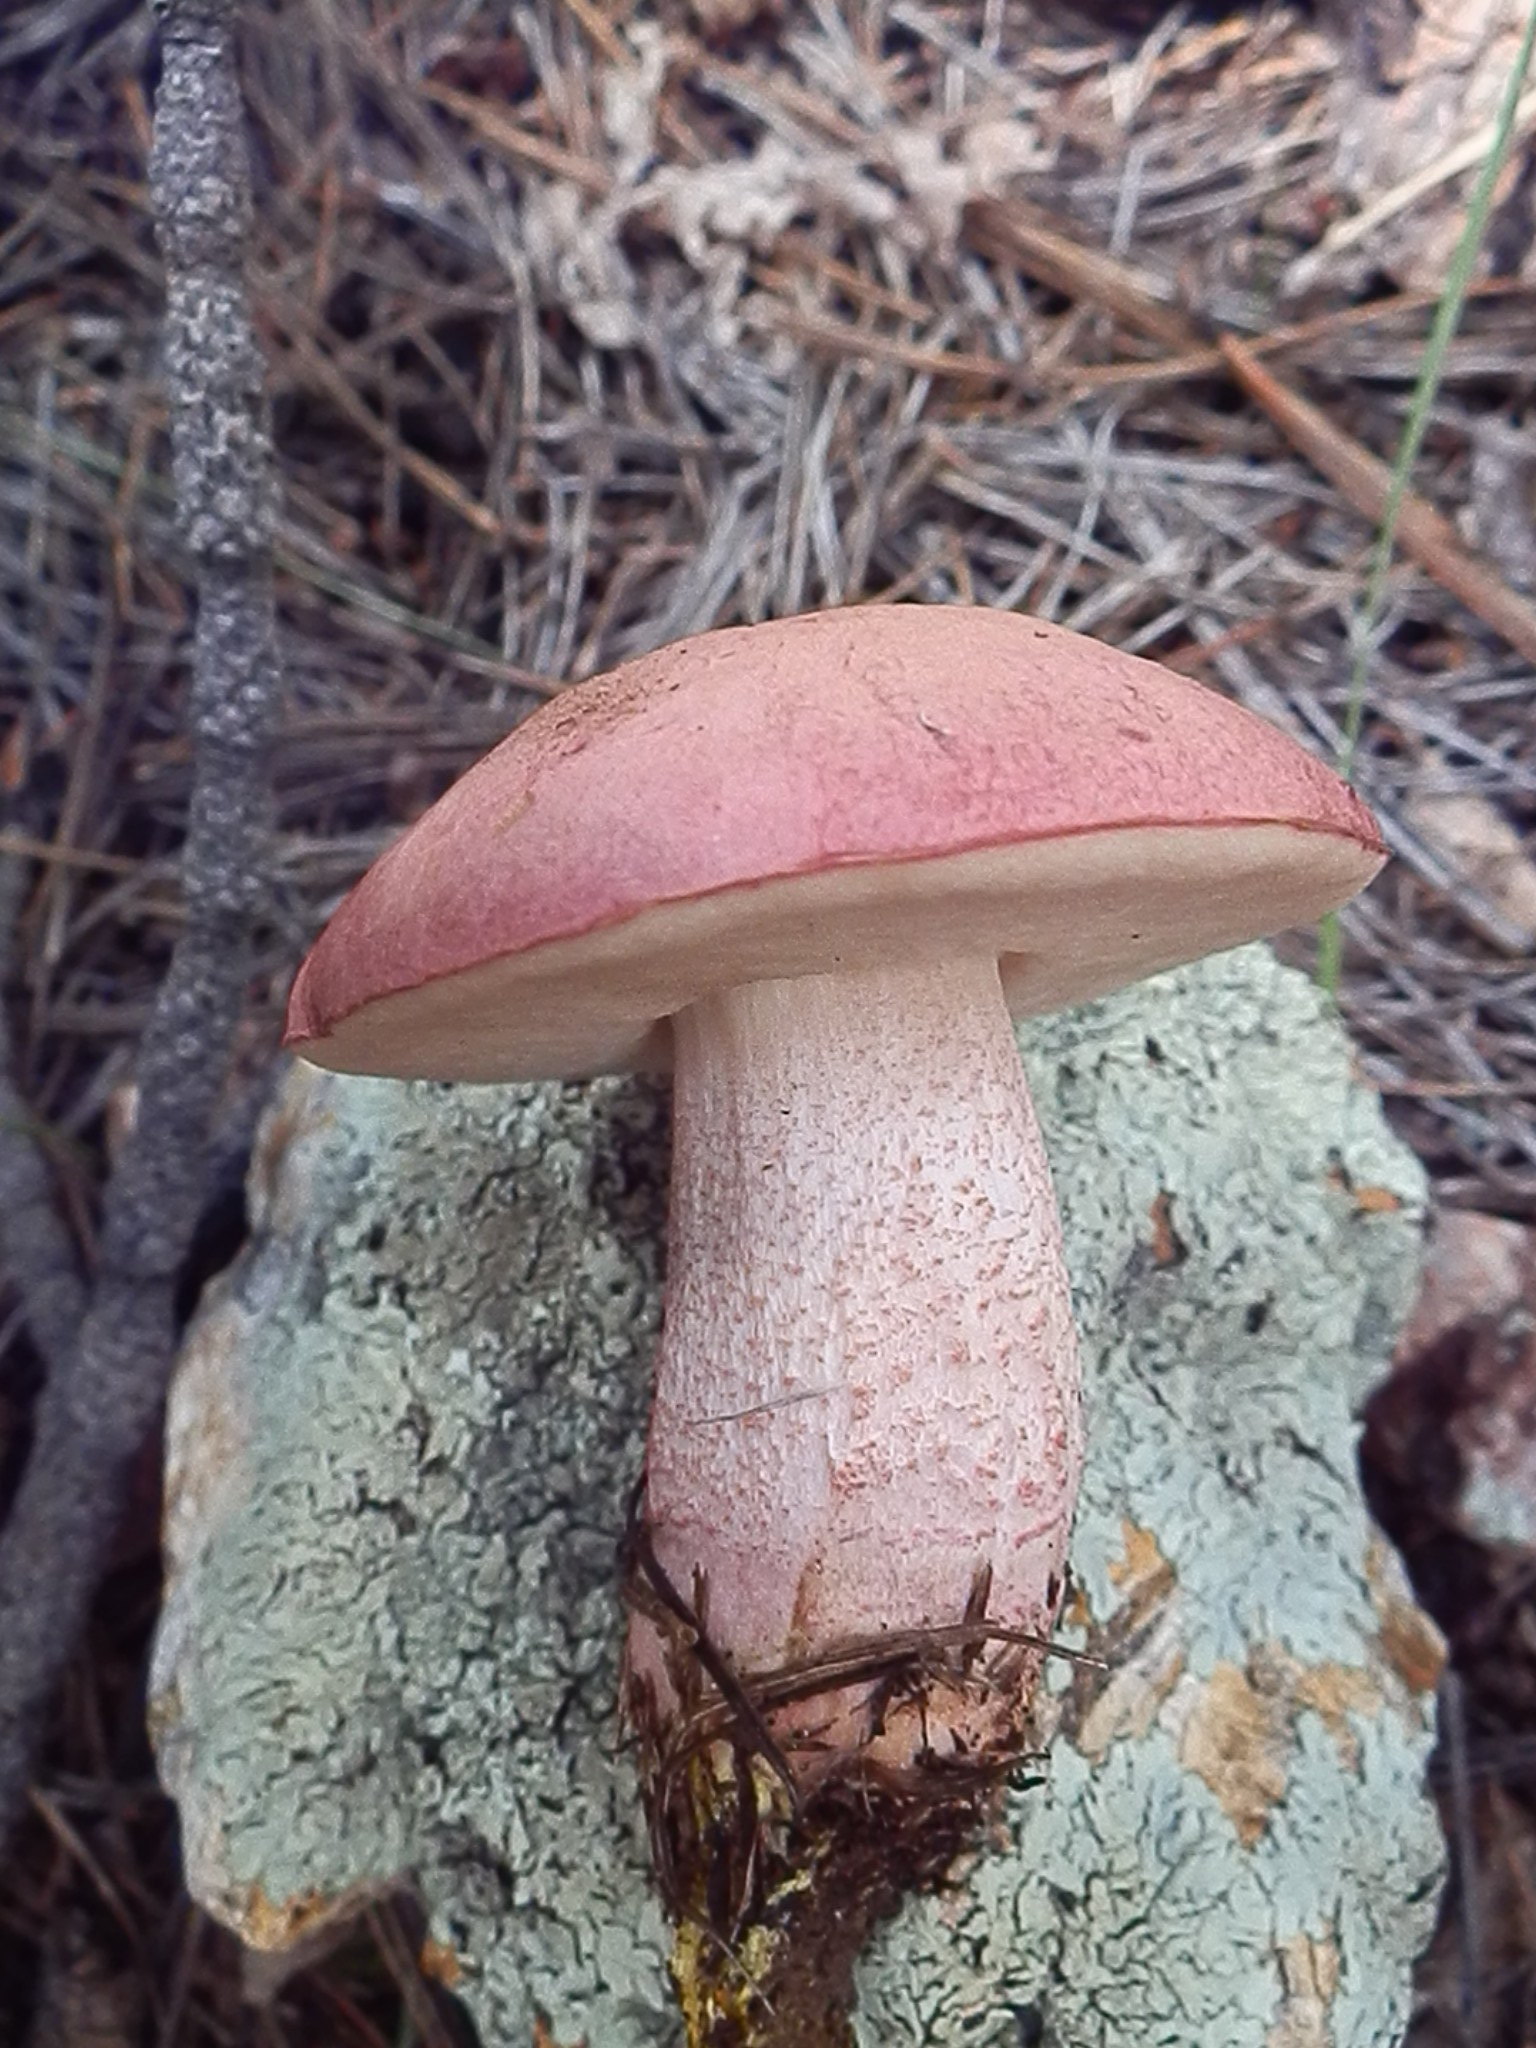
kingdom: Fungi
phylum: Basidiomycota
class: Agaricomycetes
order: Boletales
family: Boletaceae
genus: Harrya
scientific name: Harrya chromipes
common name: Chrome-footed bolete
